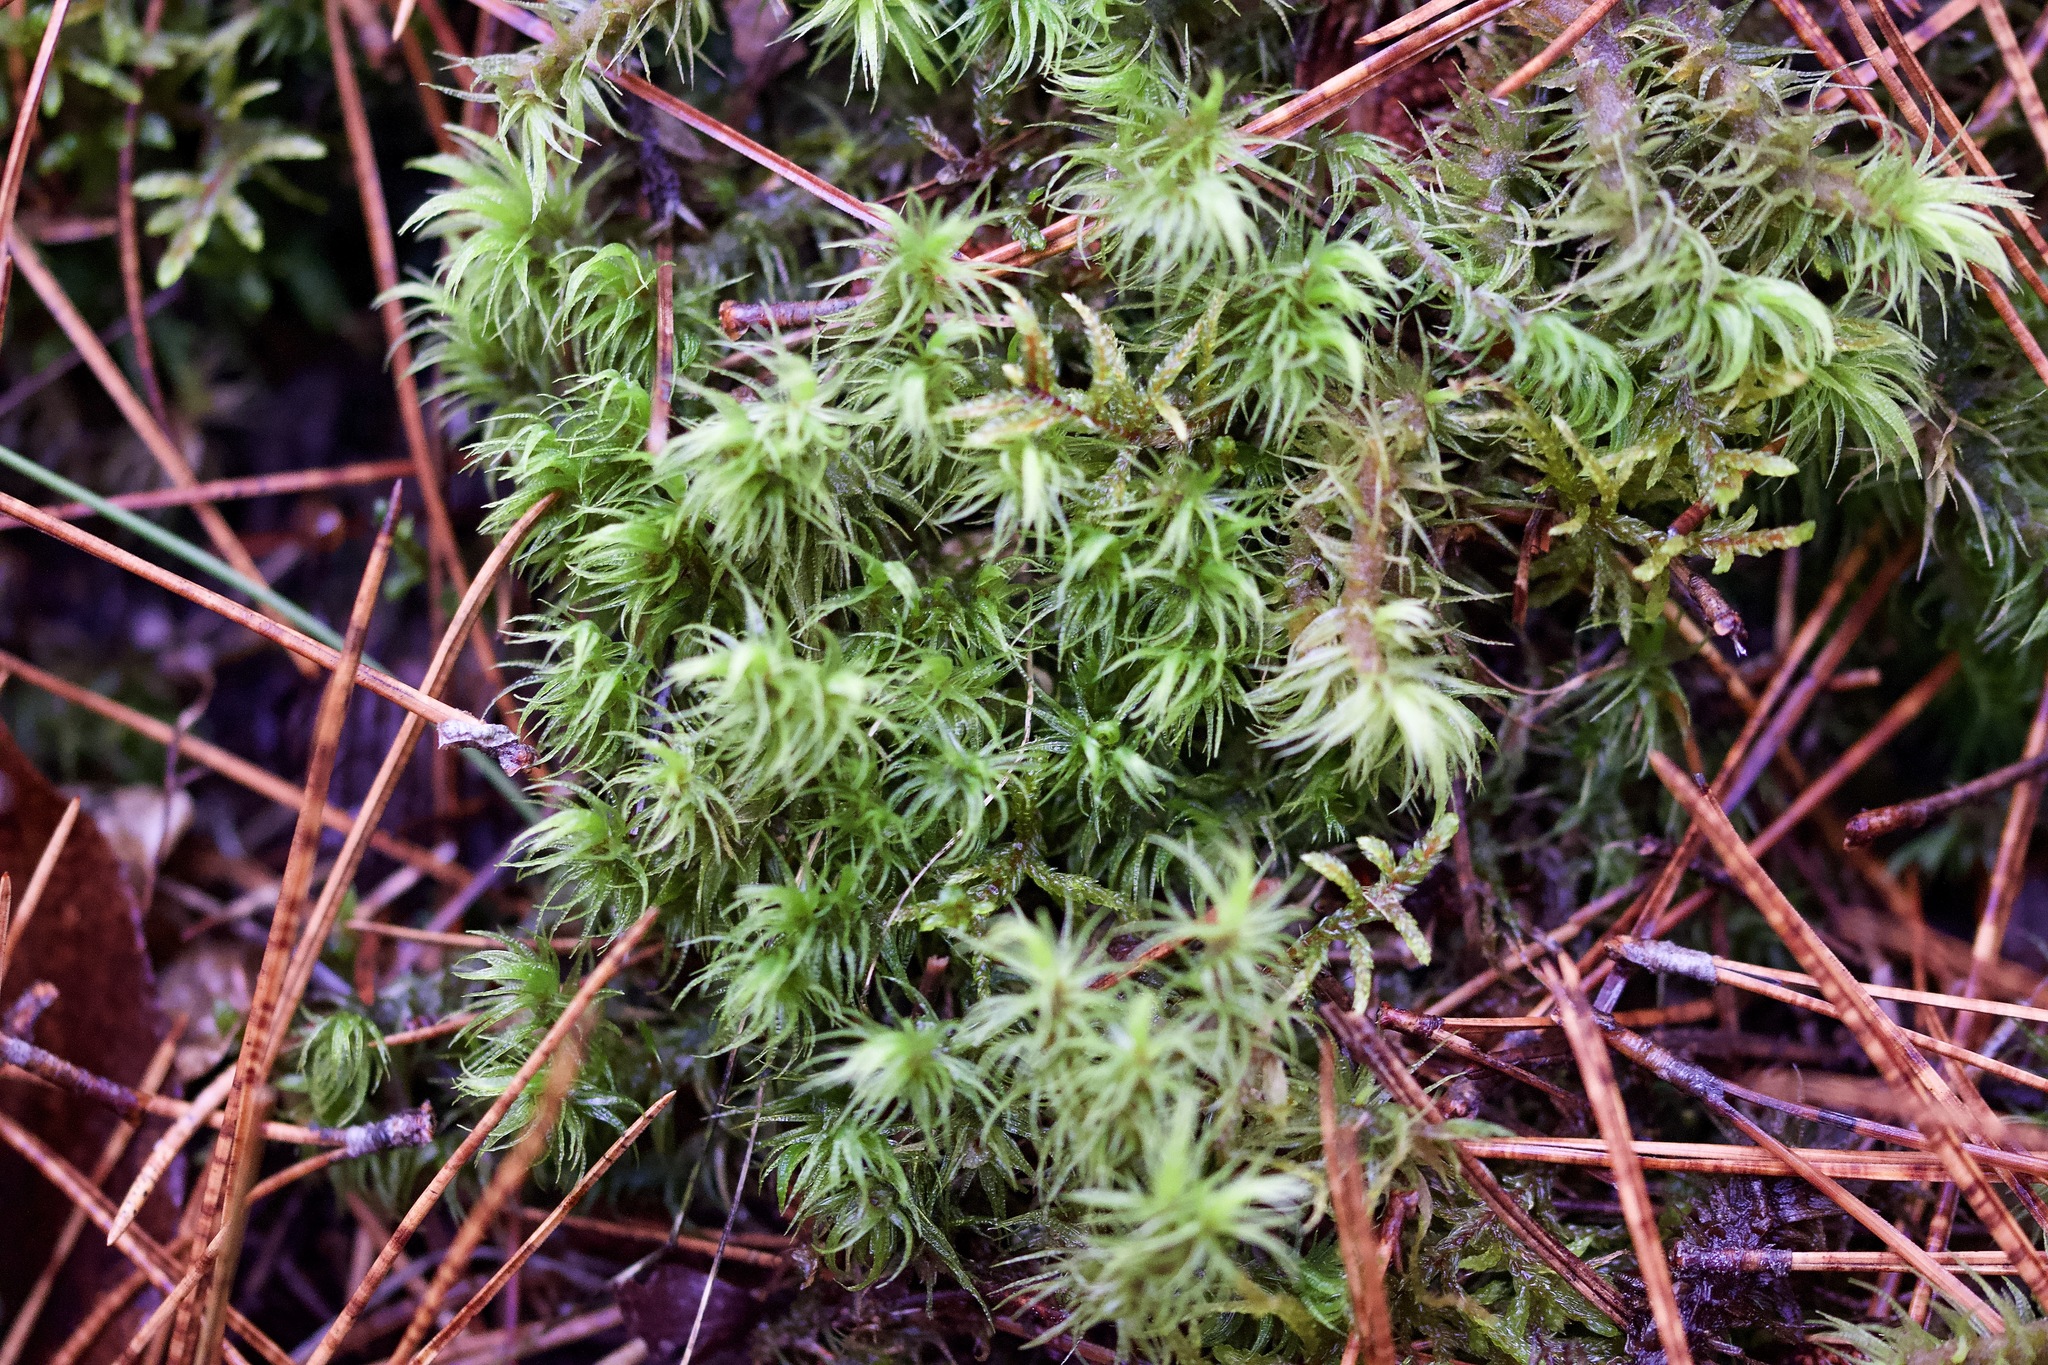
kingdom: Plantae
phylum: Bryophyta
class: Bryopsida
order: Dicranales
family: Dicranaceae
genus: Dicranum
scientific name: Dicranum polysetum
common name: Rugose fork-moss
